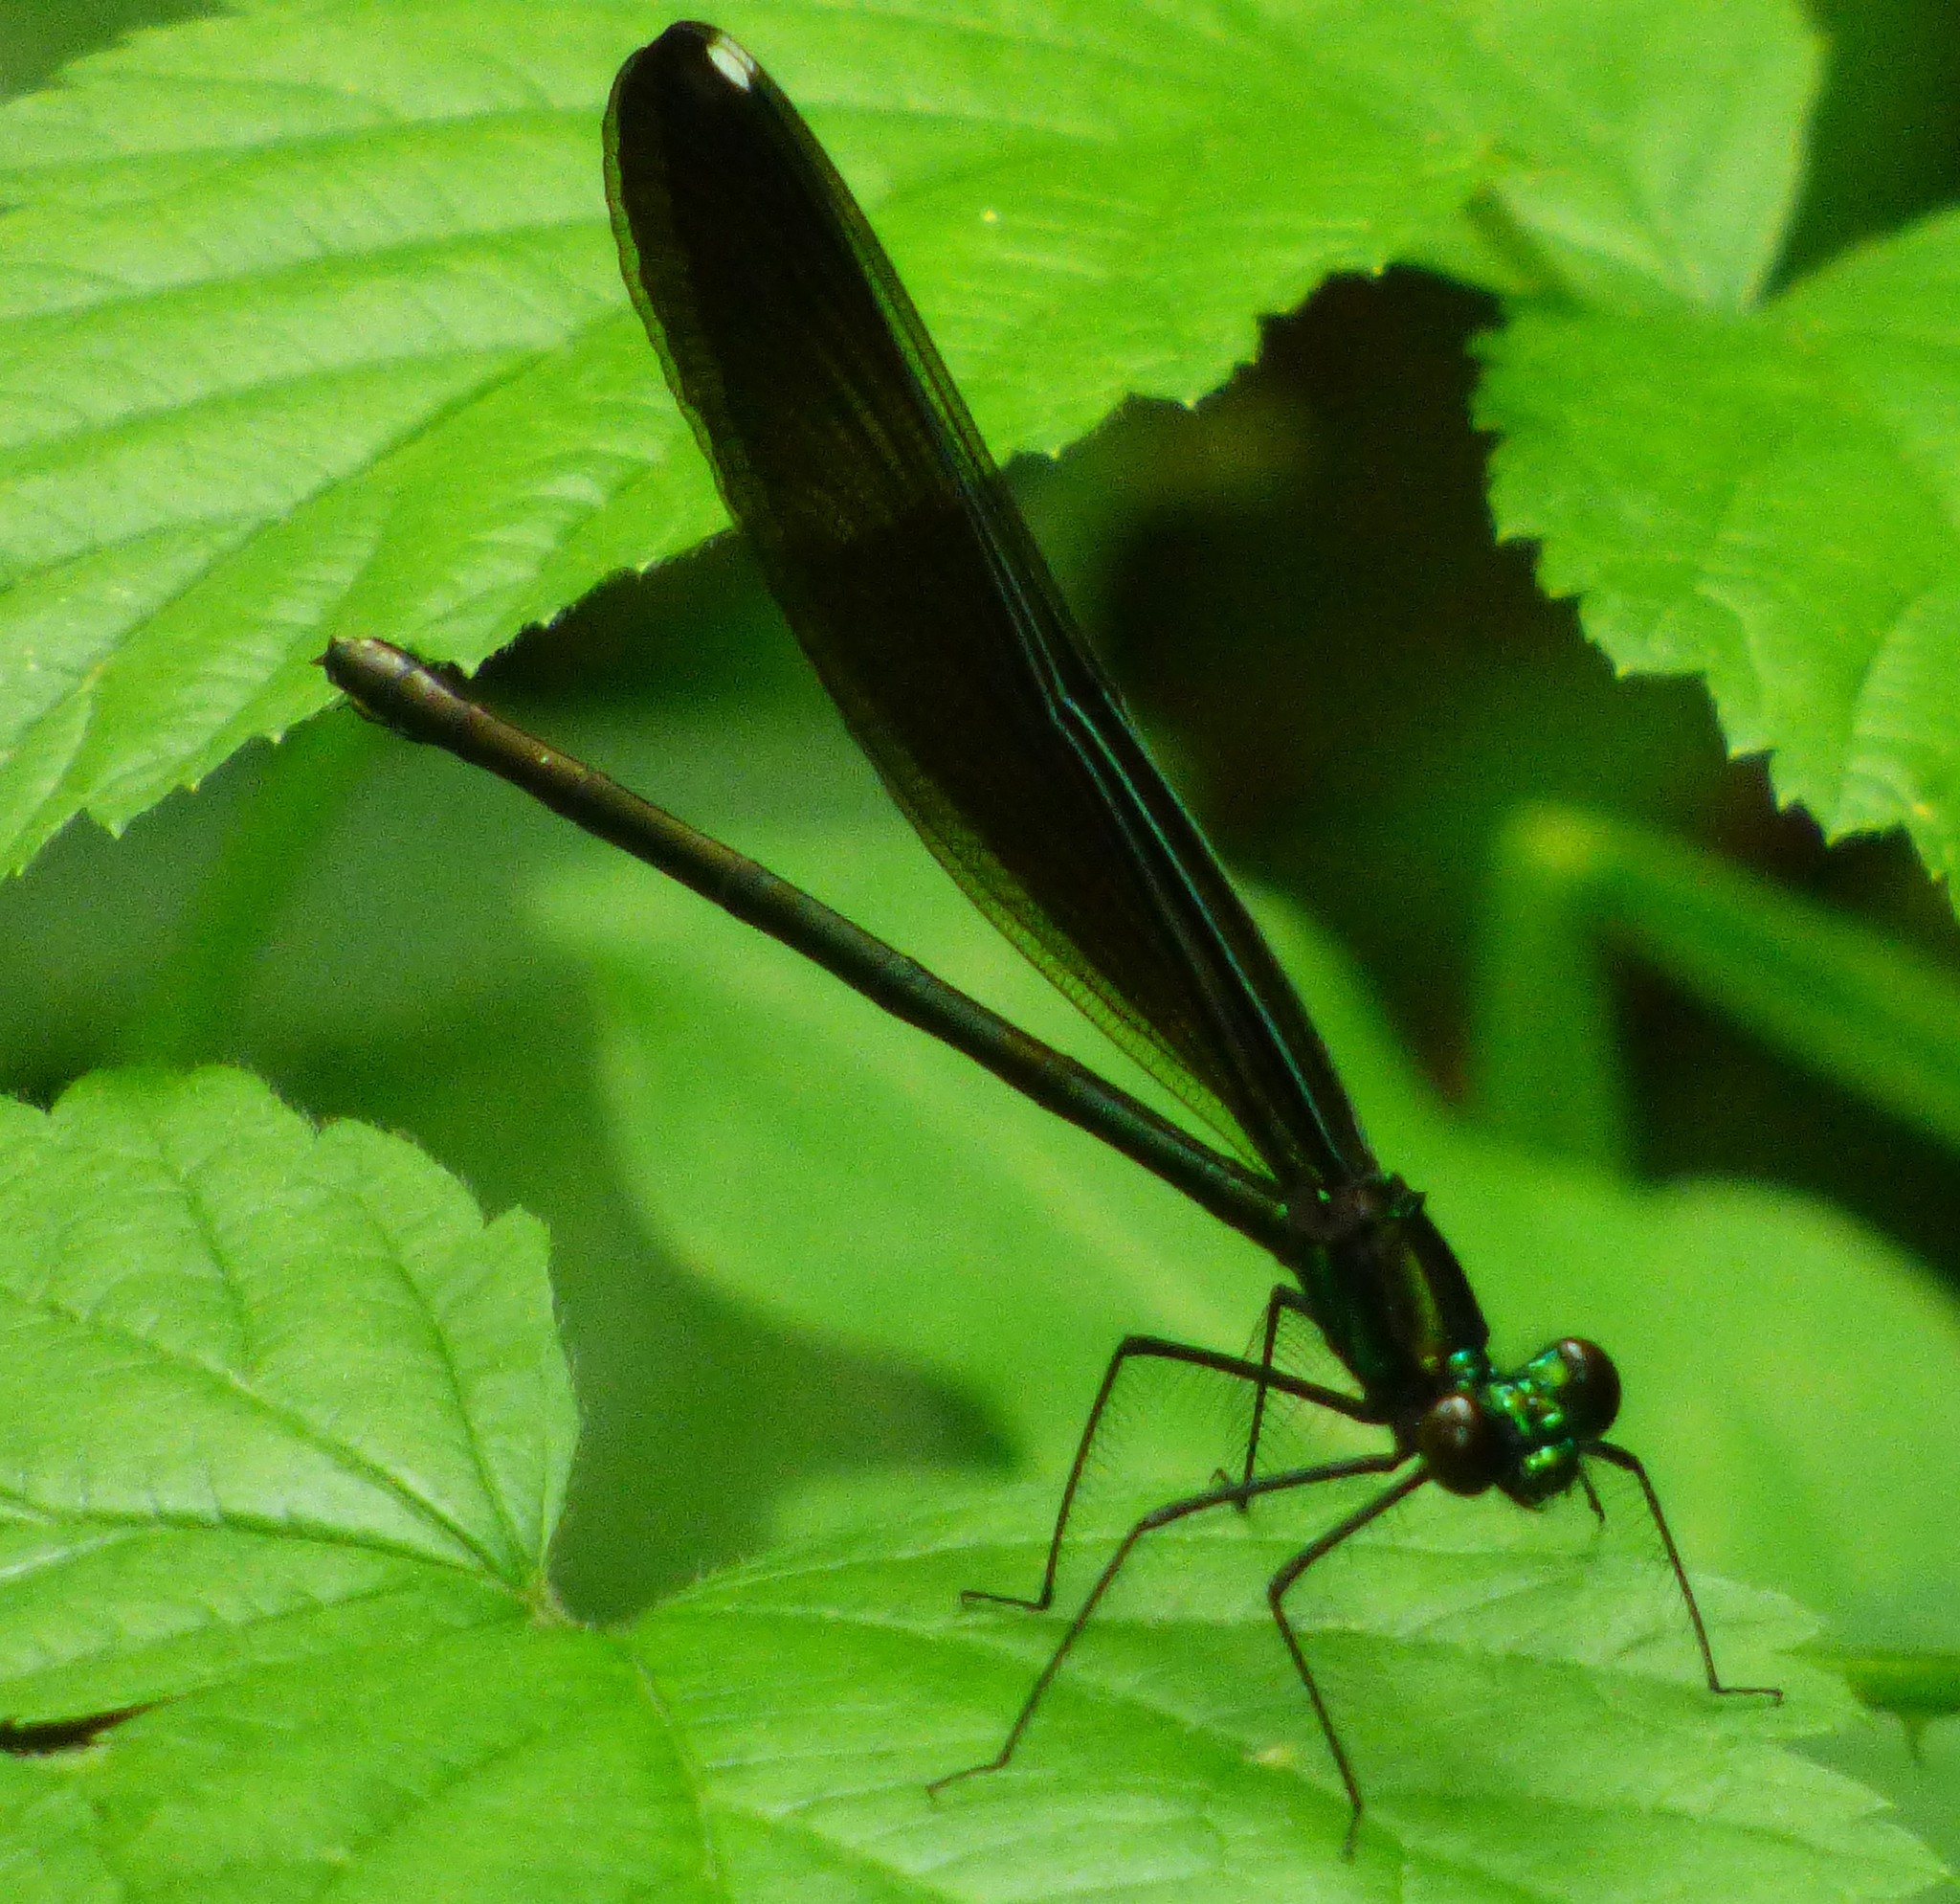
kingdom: Animalia
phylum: Arthropoda
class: Insecta
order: Odonata
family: Calopterygidae
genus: Calopteryx
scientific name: Calopteryx maculata
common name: Ebony jewelwing
